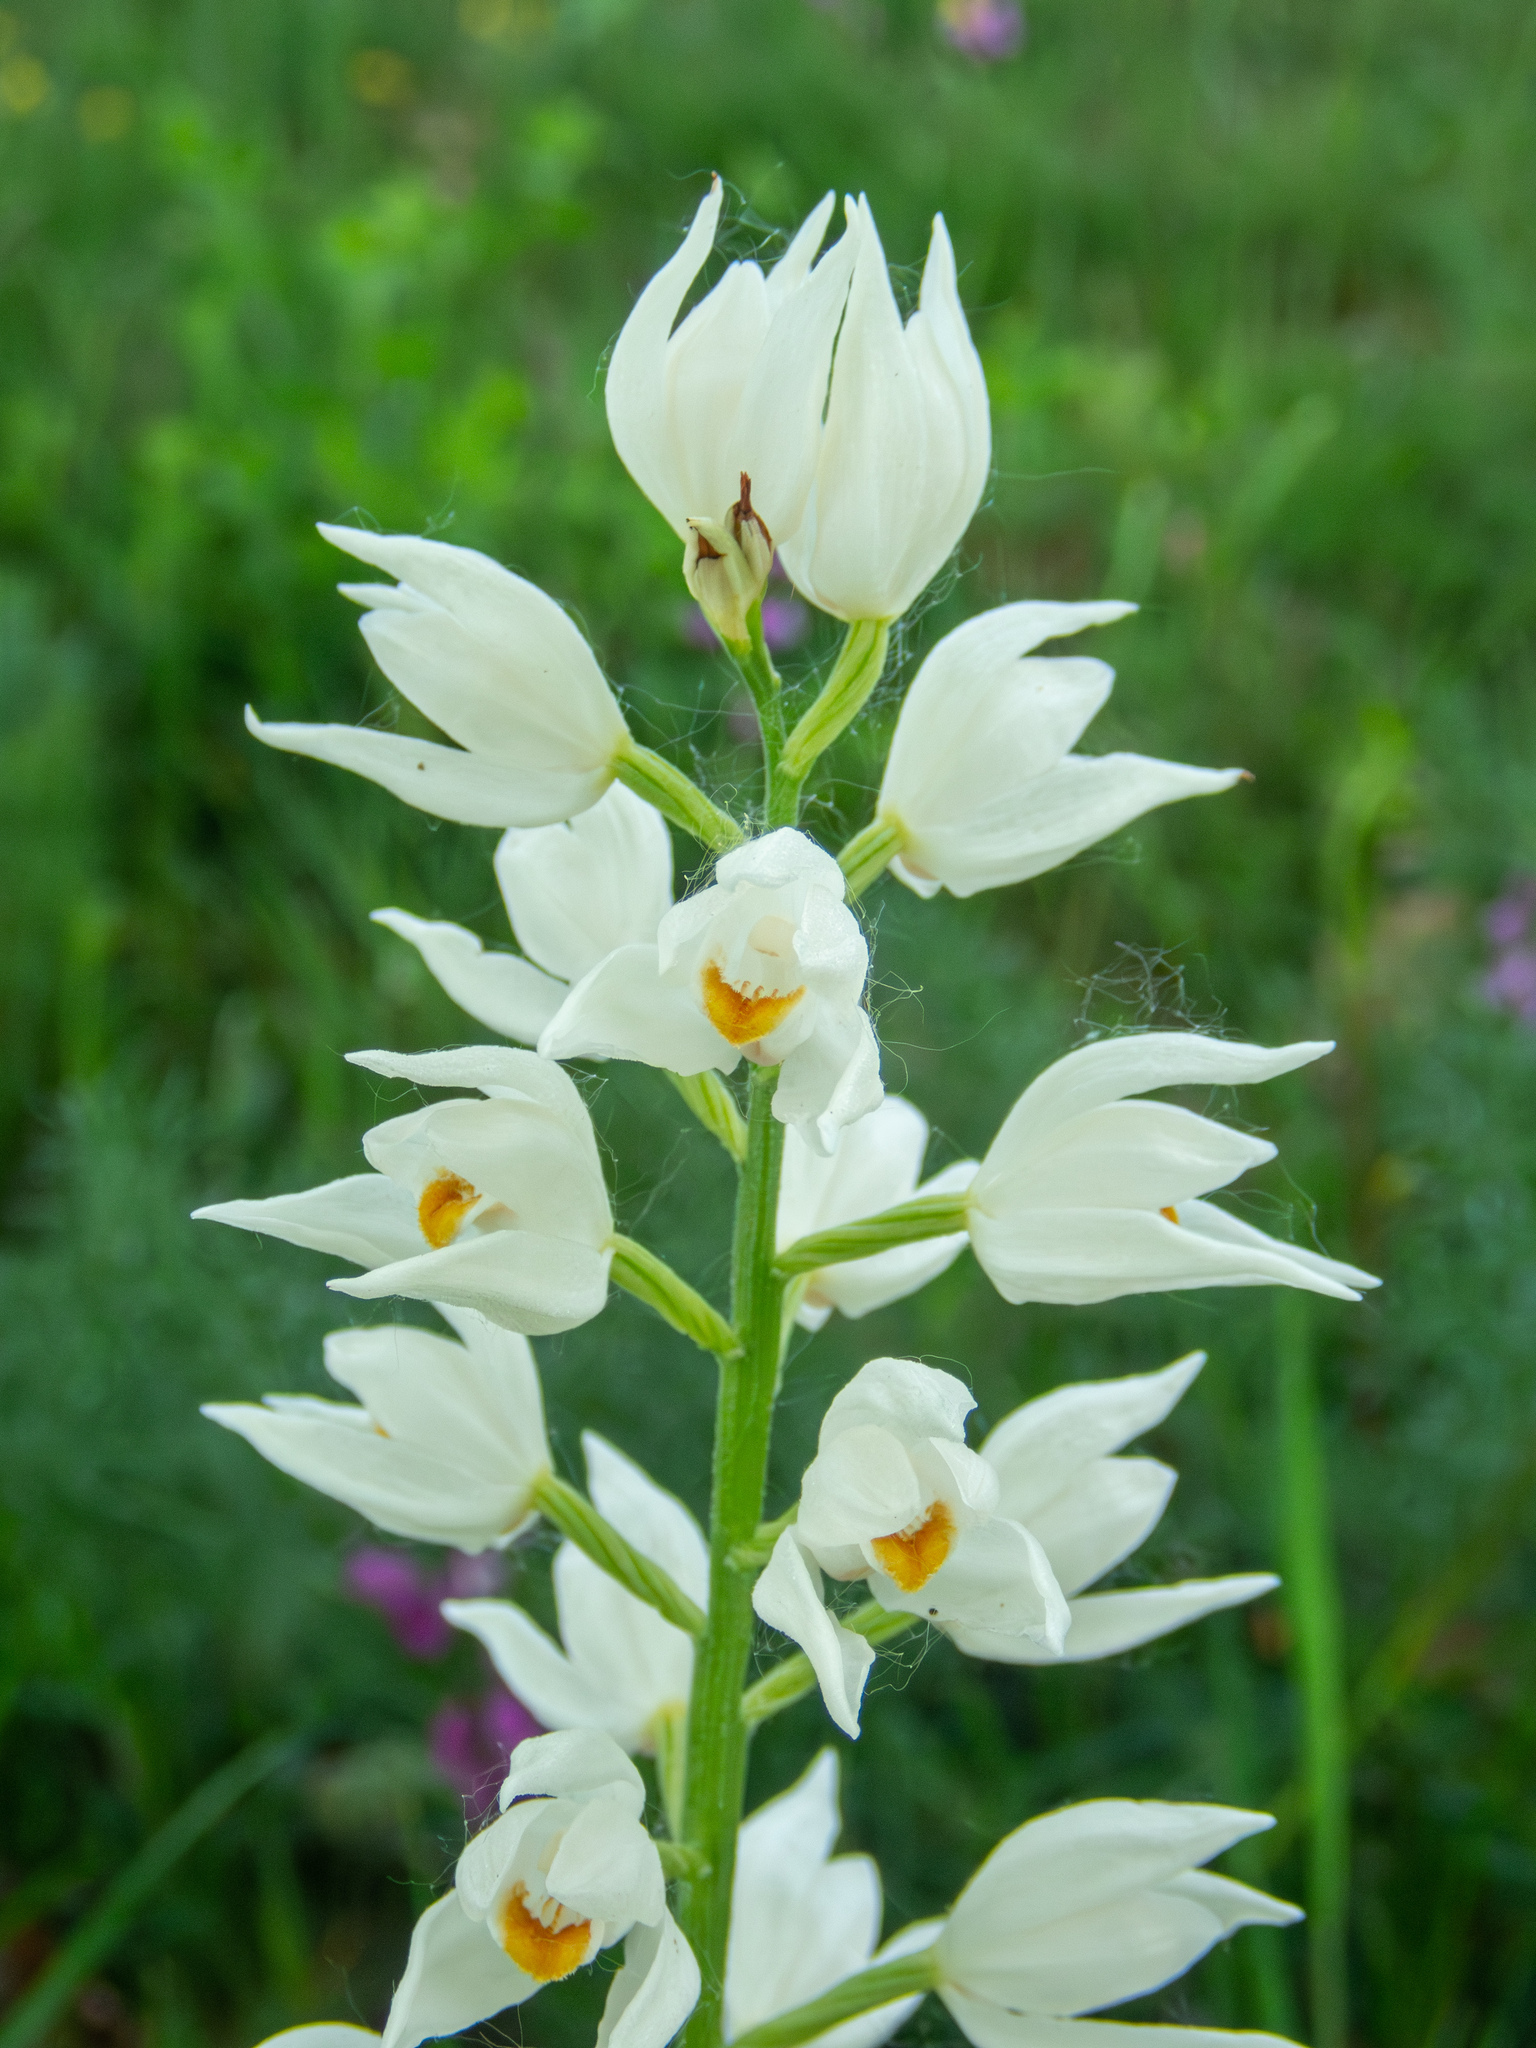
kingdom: Plantae
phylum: Tracheophyta
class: Liliopsida
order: Asparagales
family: Orchidaceae
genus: Cephalanthera
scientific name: Cephalanthera longifolia
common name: Narrow-leaved helleborine
